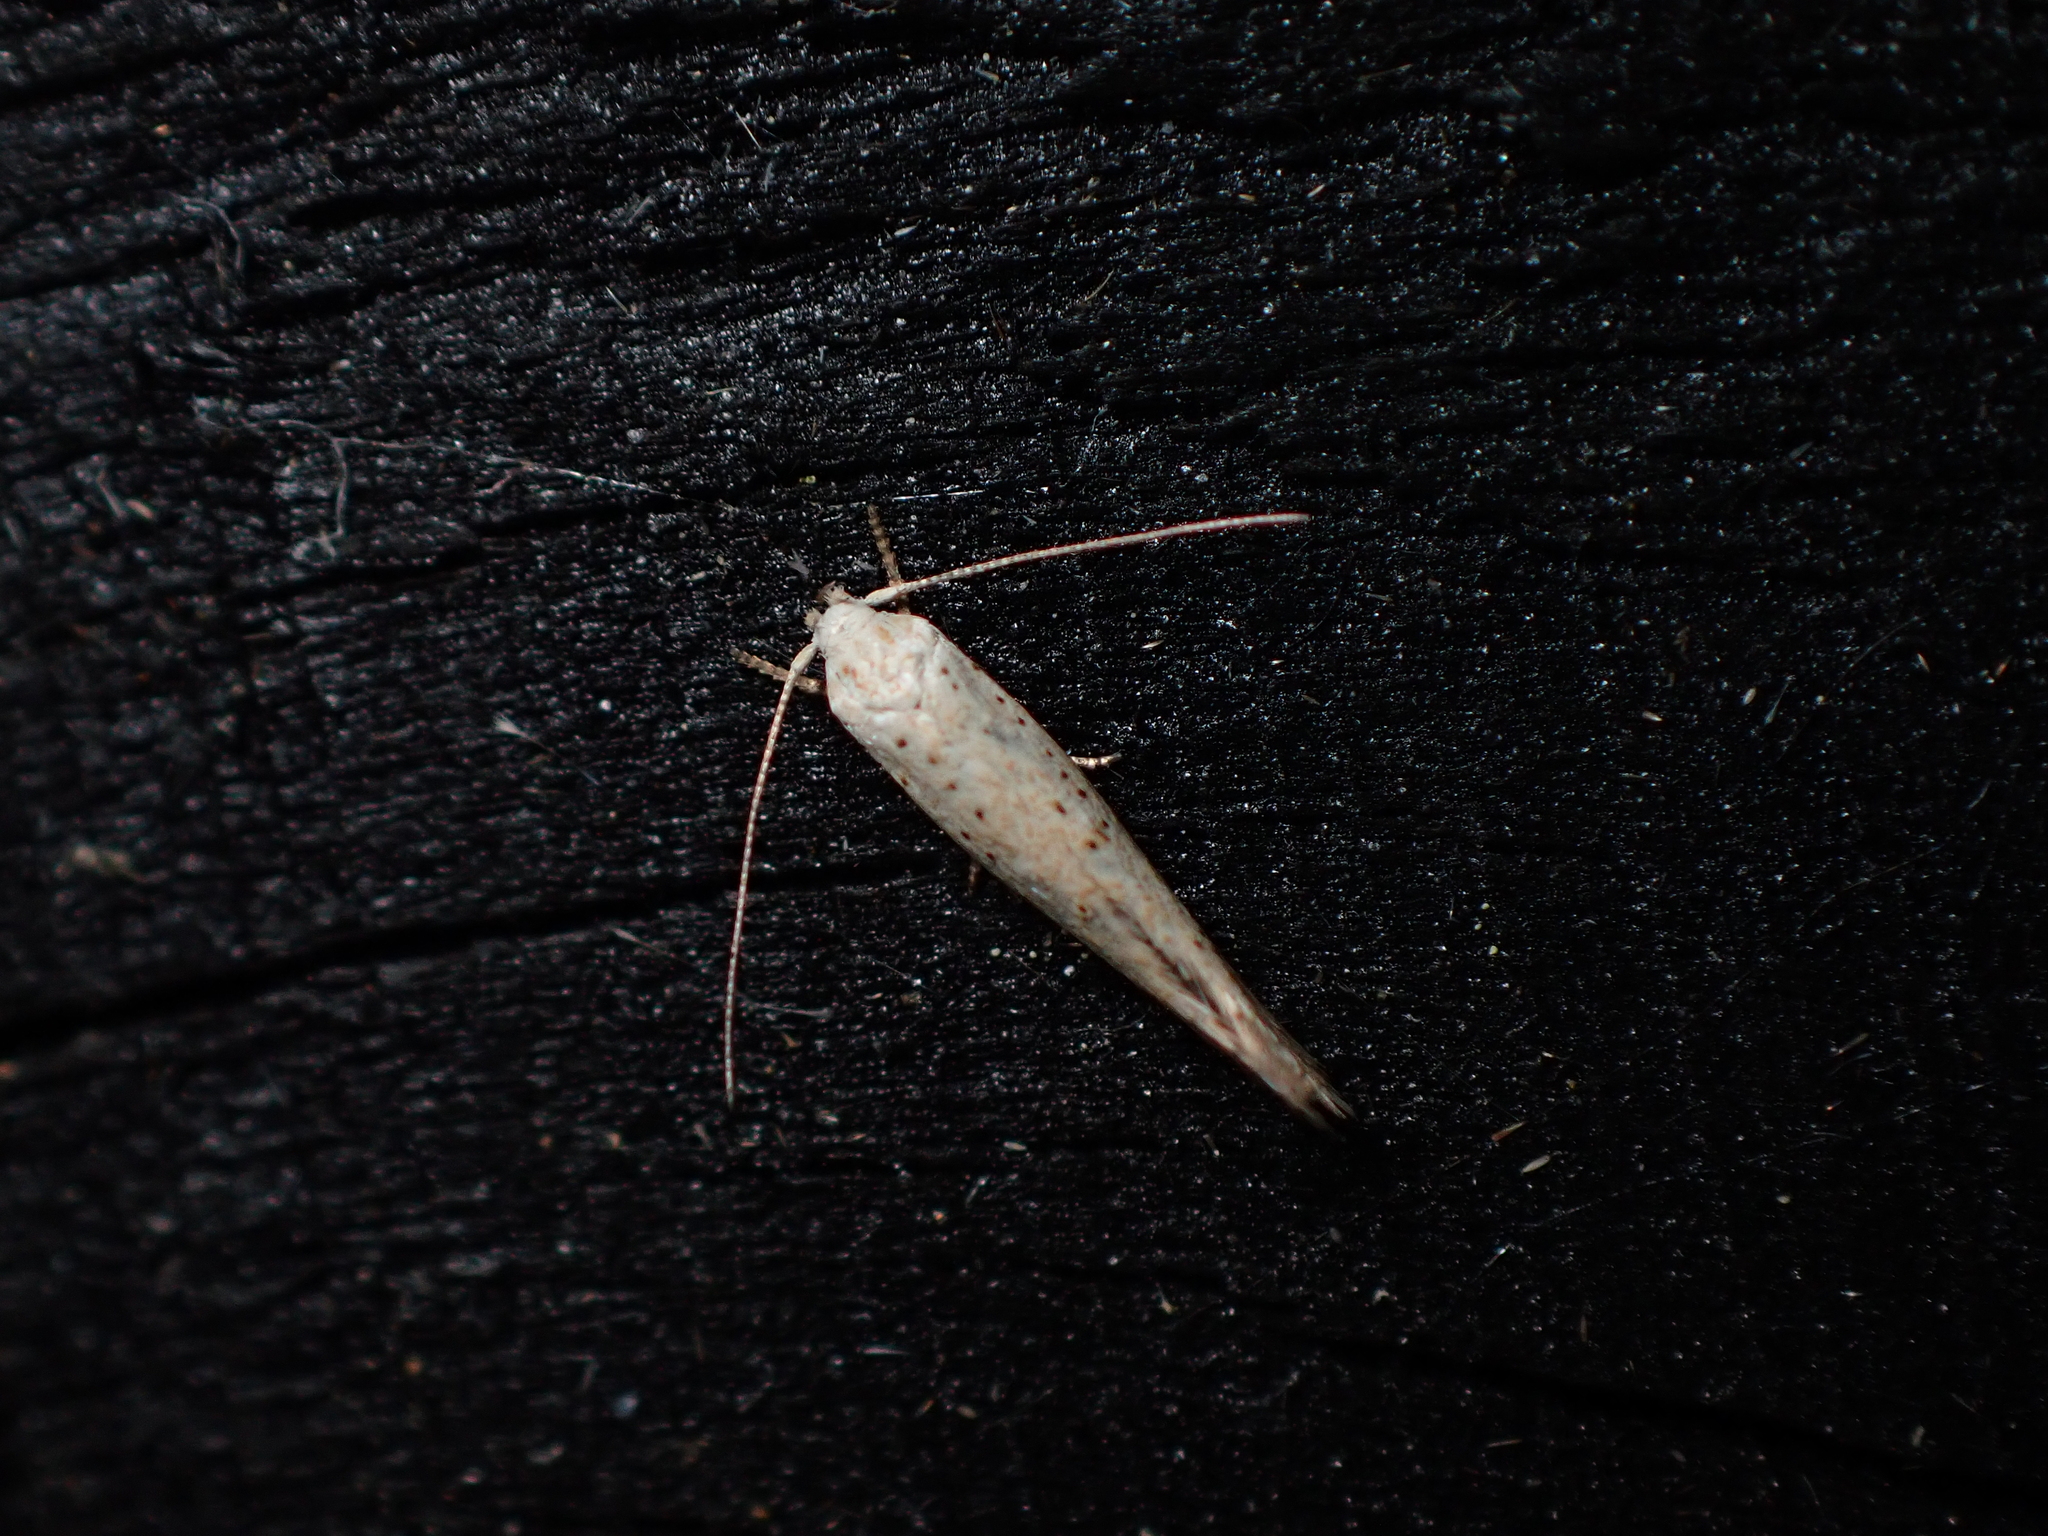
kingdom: Animalia
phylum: Arthropoda
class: Insecta
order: Lepidoptera
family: Elachistidae
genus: Elachista
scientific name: Elachista gerasmia
